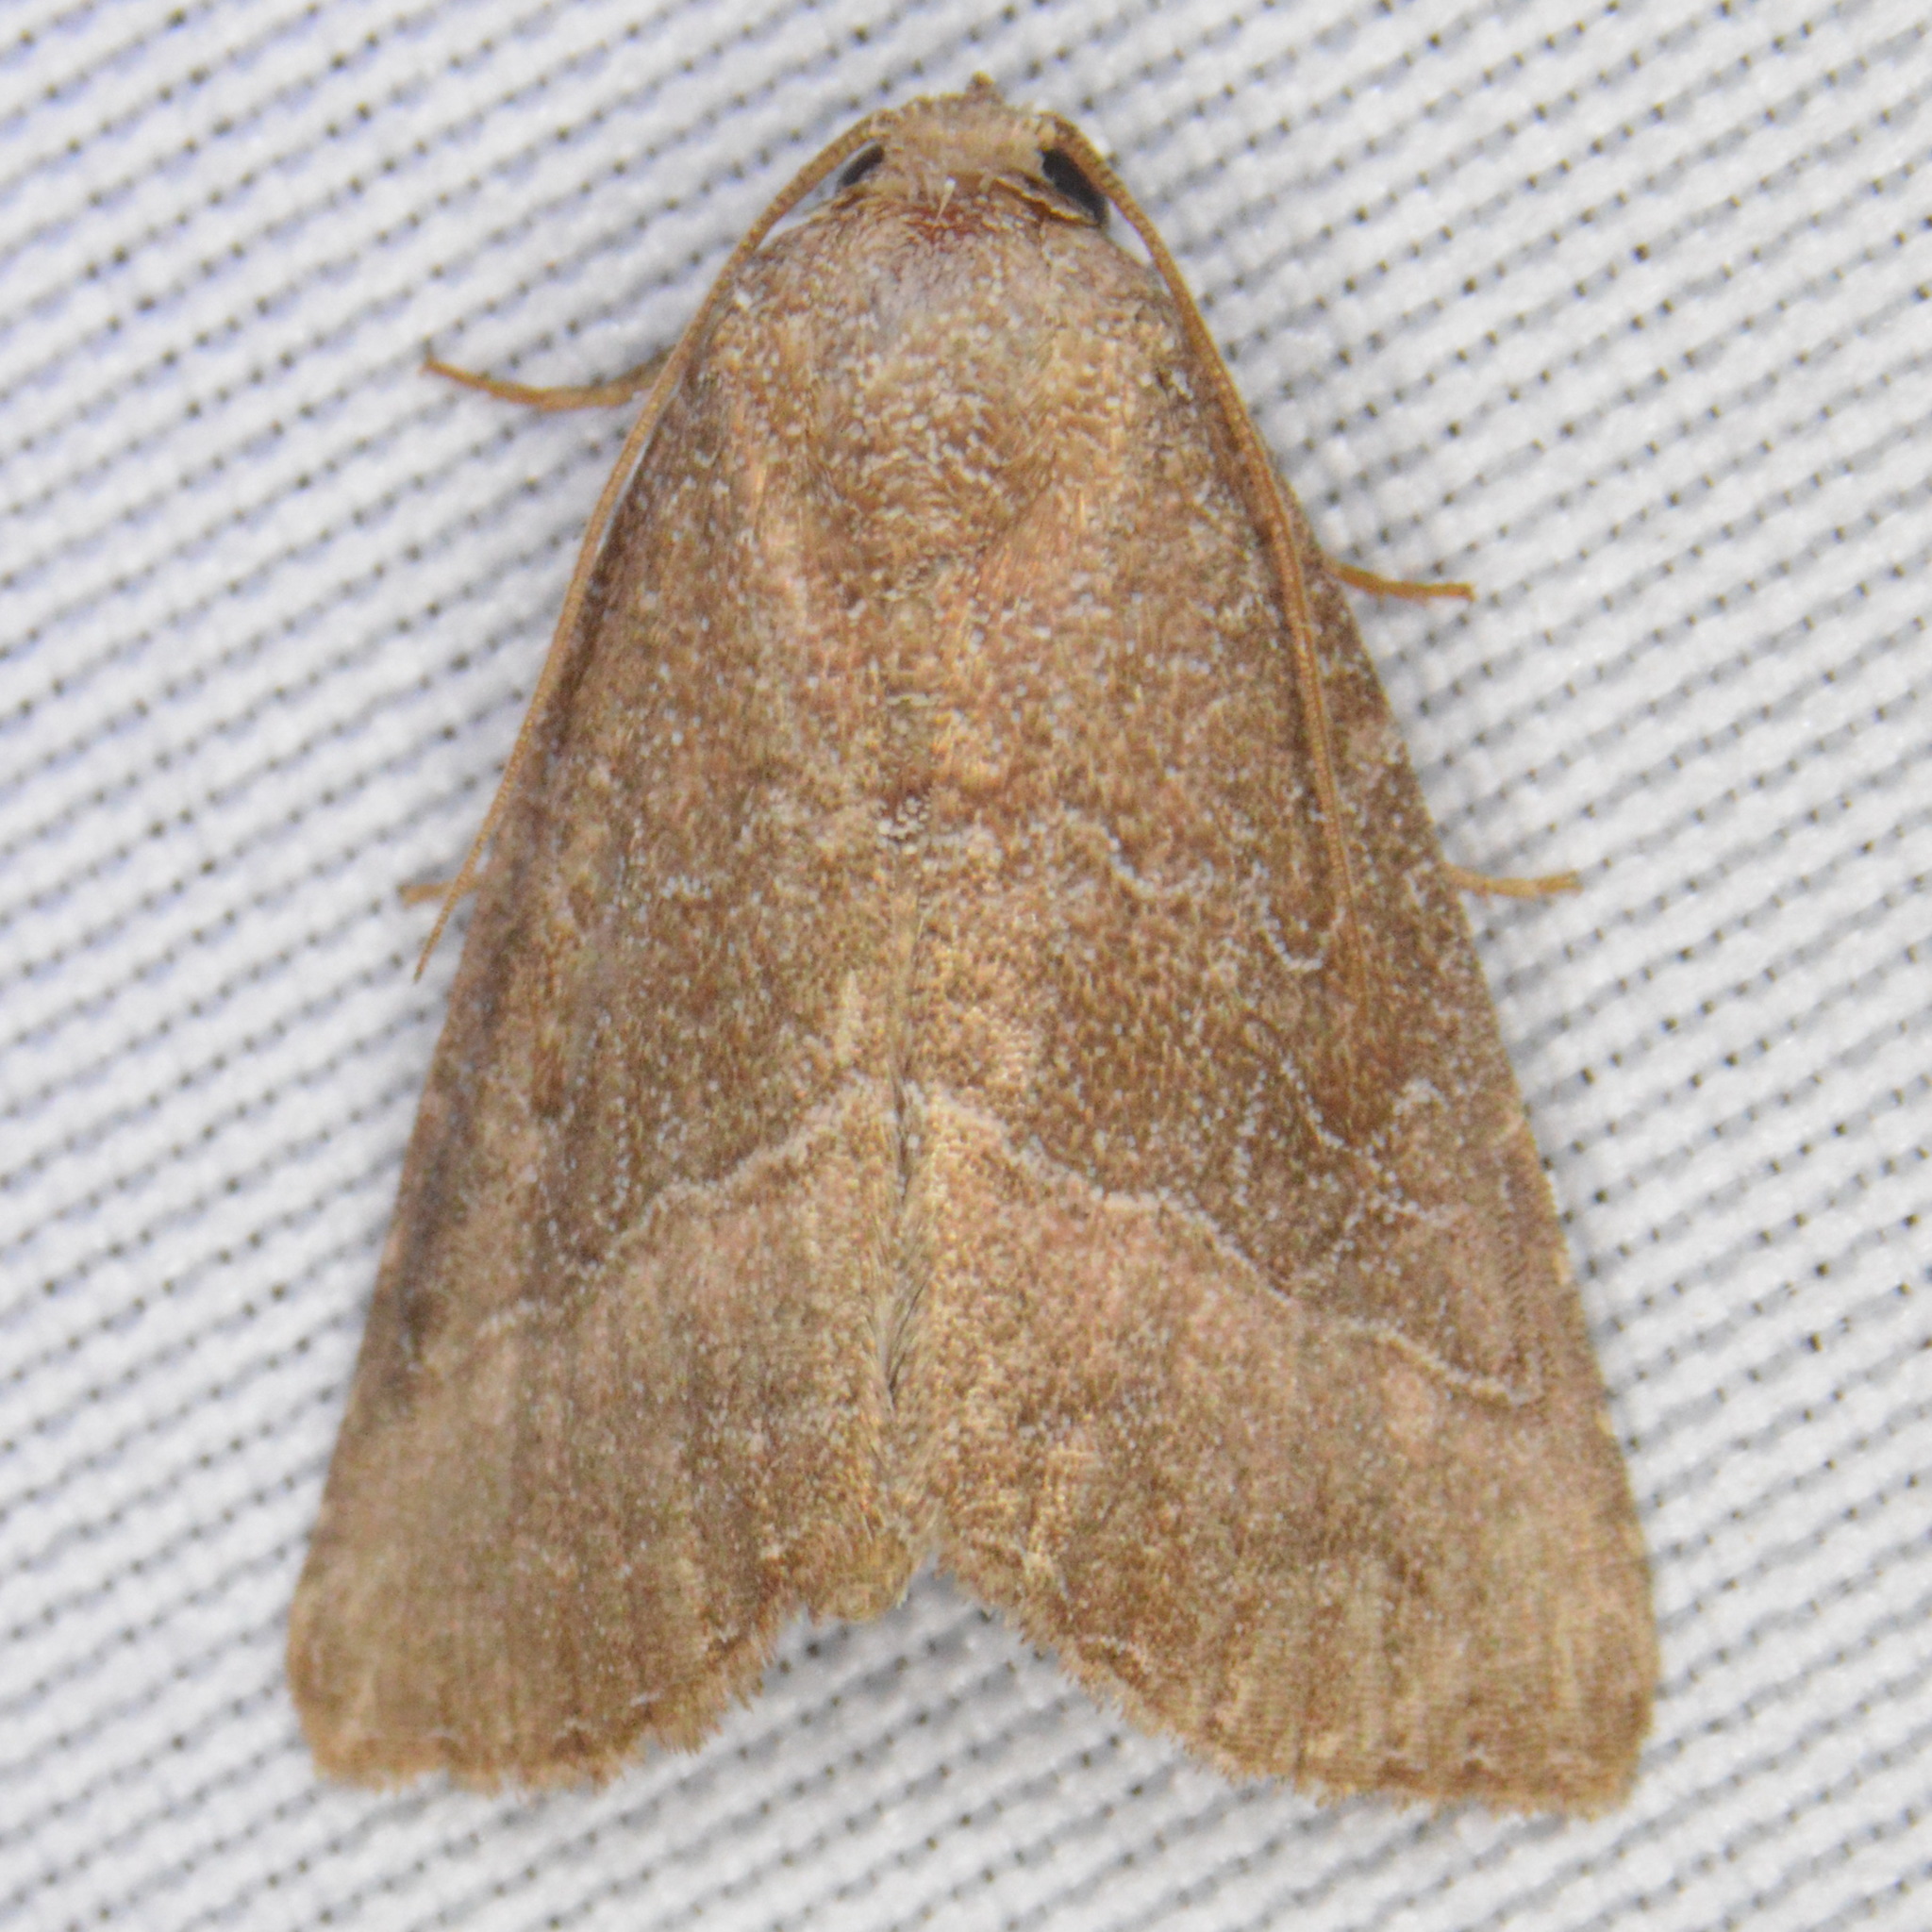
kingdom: Animalia
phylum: Arthropoda
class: Insecta
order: Lepidoptera
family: Noctuidae
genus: Ogdoconta
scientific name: Ogdoconta cinereola
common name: Common pinkband
